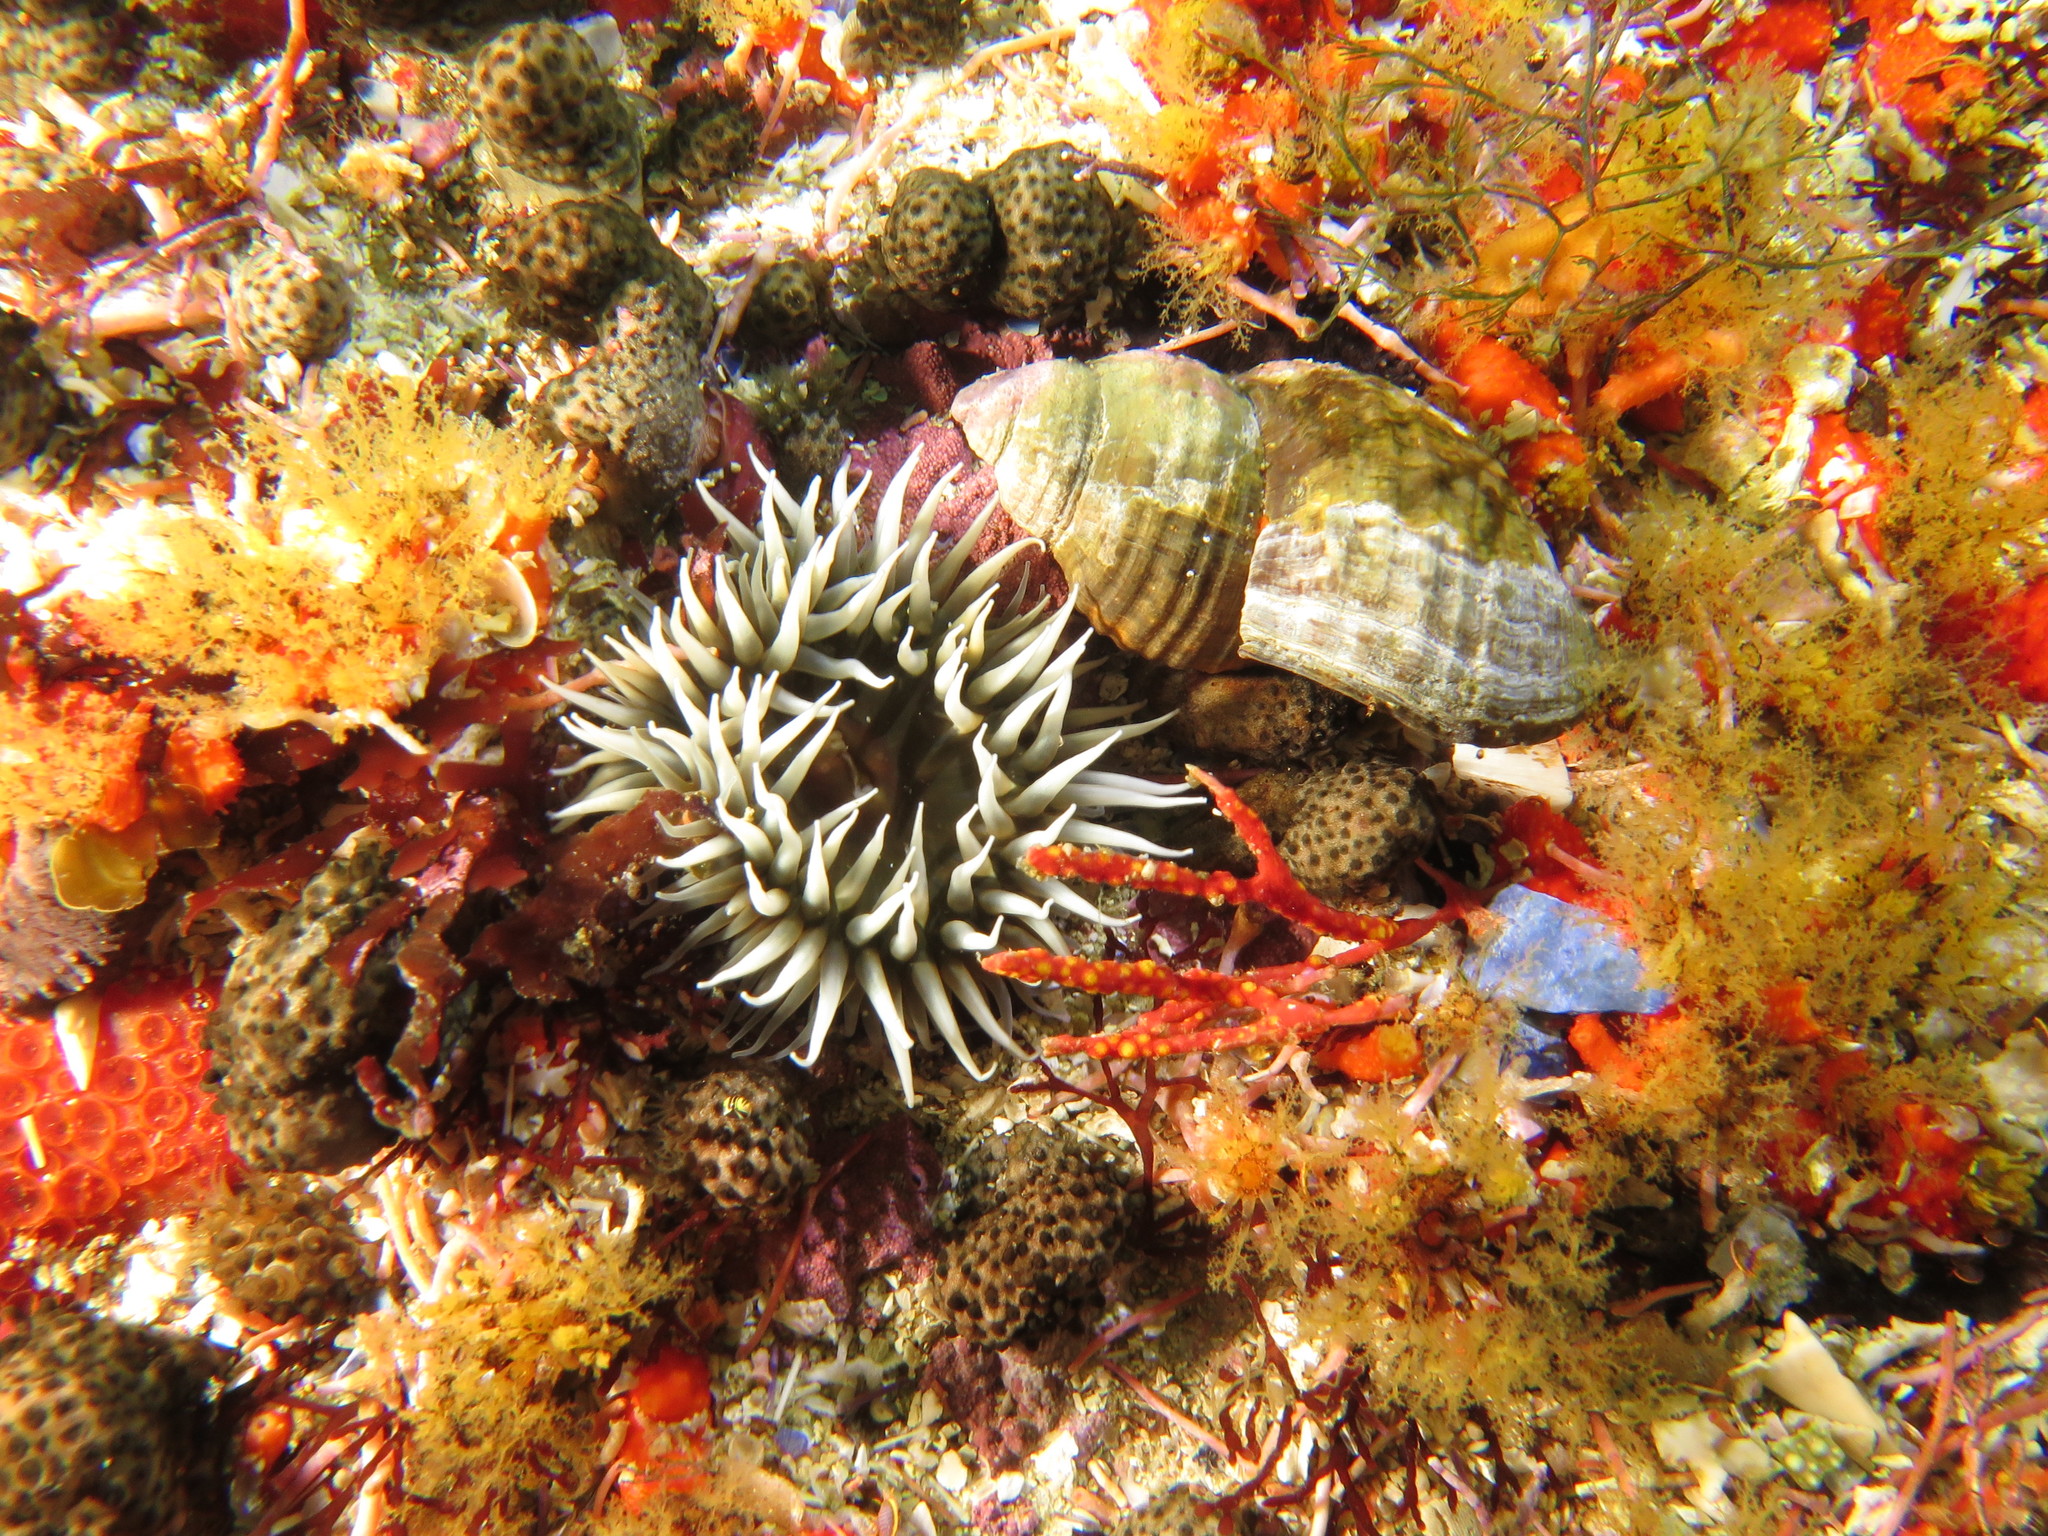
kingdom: Animalia
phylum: Cnidaria
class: Anthozoa
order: Actiniaria
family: Sagartiidae
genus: Anthothoe
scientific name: Anthothoe stimpsonii
